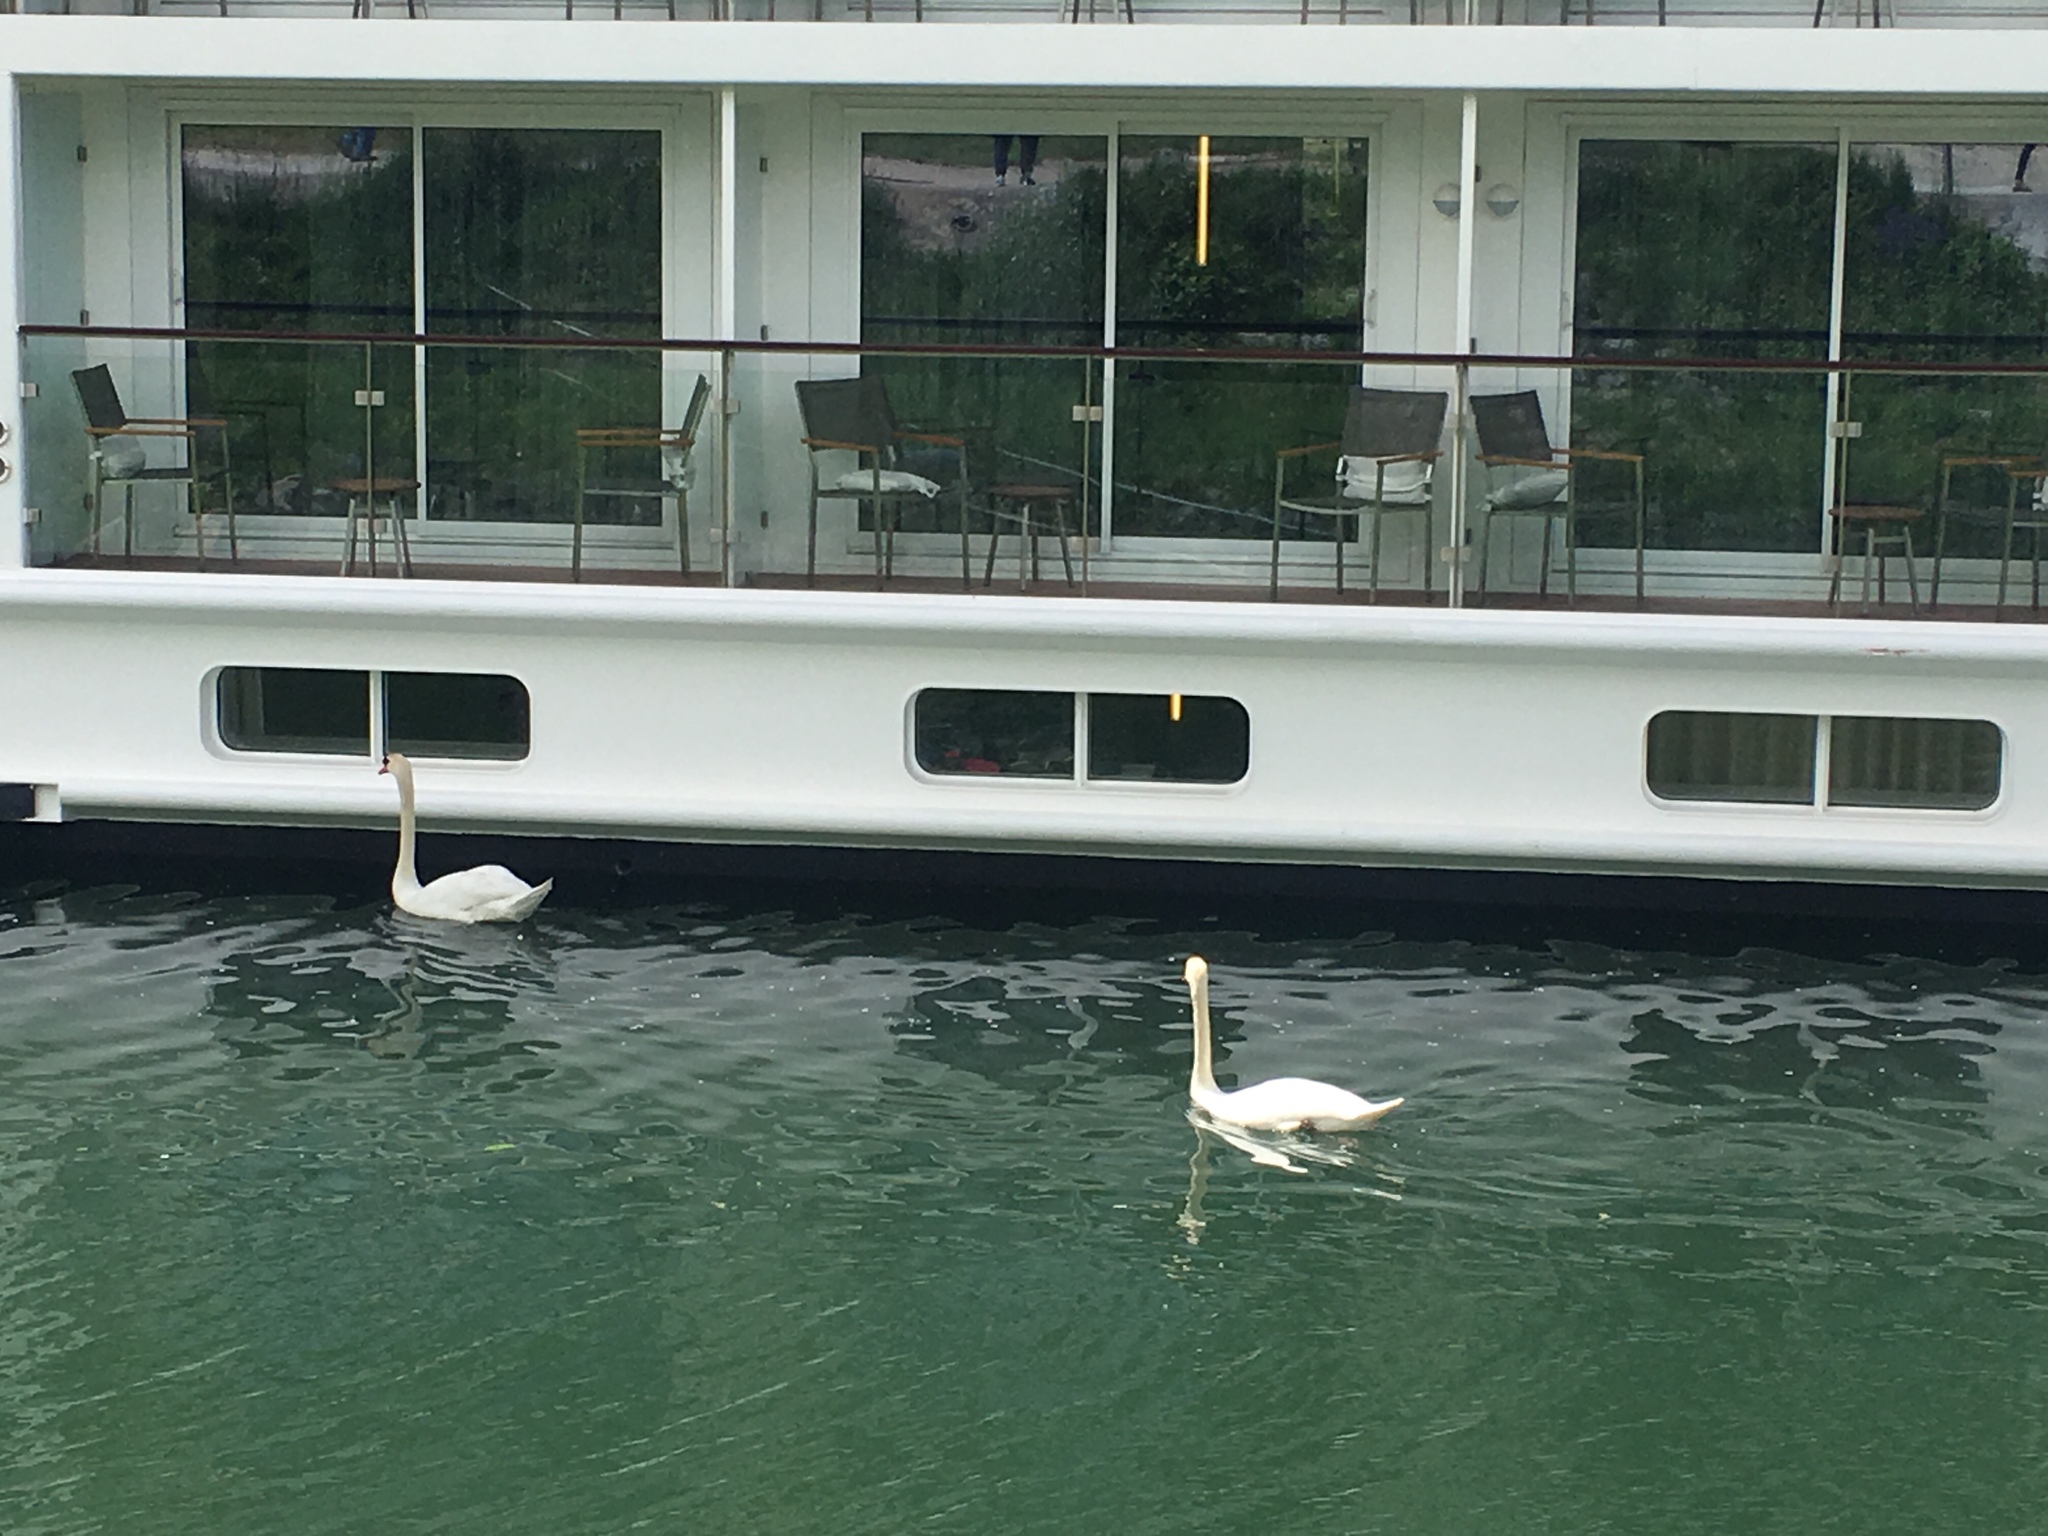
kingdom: Animalia
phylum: Chordata
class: Aves
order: Anseriformes
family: Anatidae
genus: Cygnus
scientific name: Cygnus olor
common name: Mute swan
